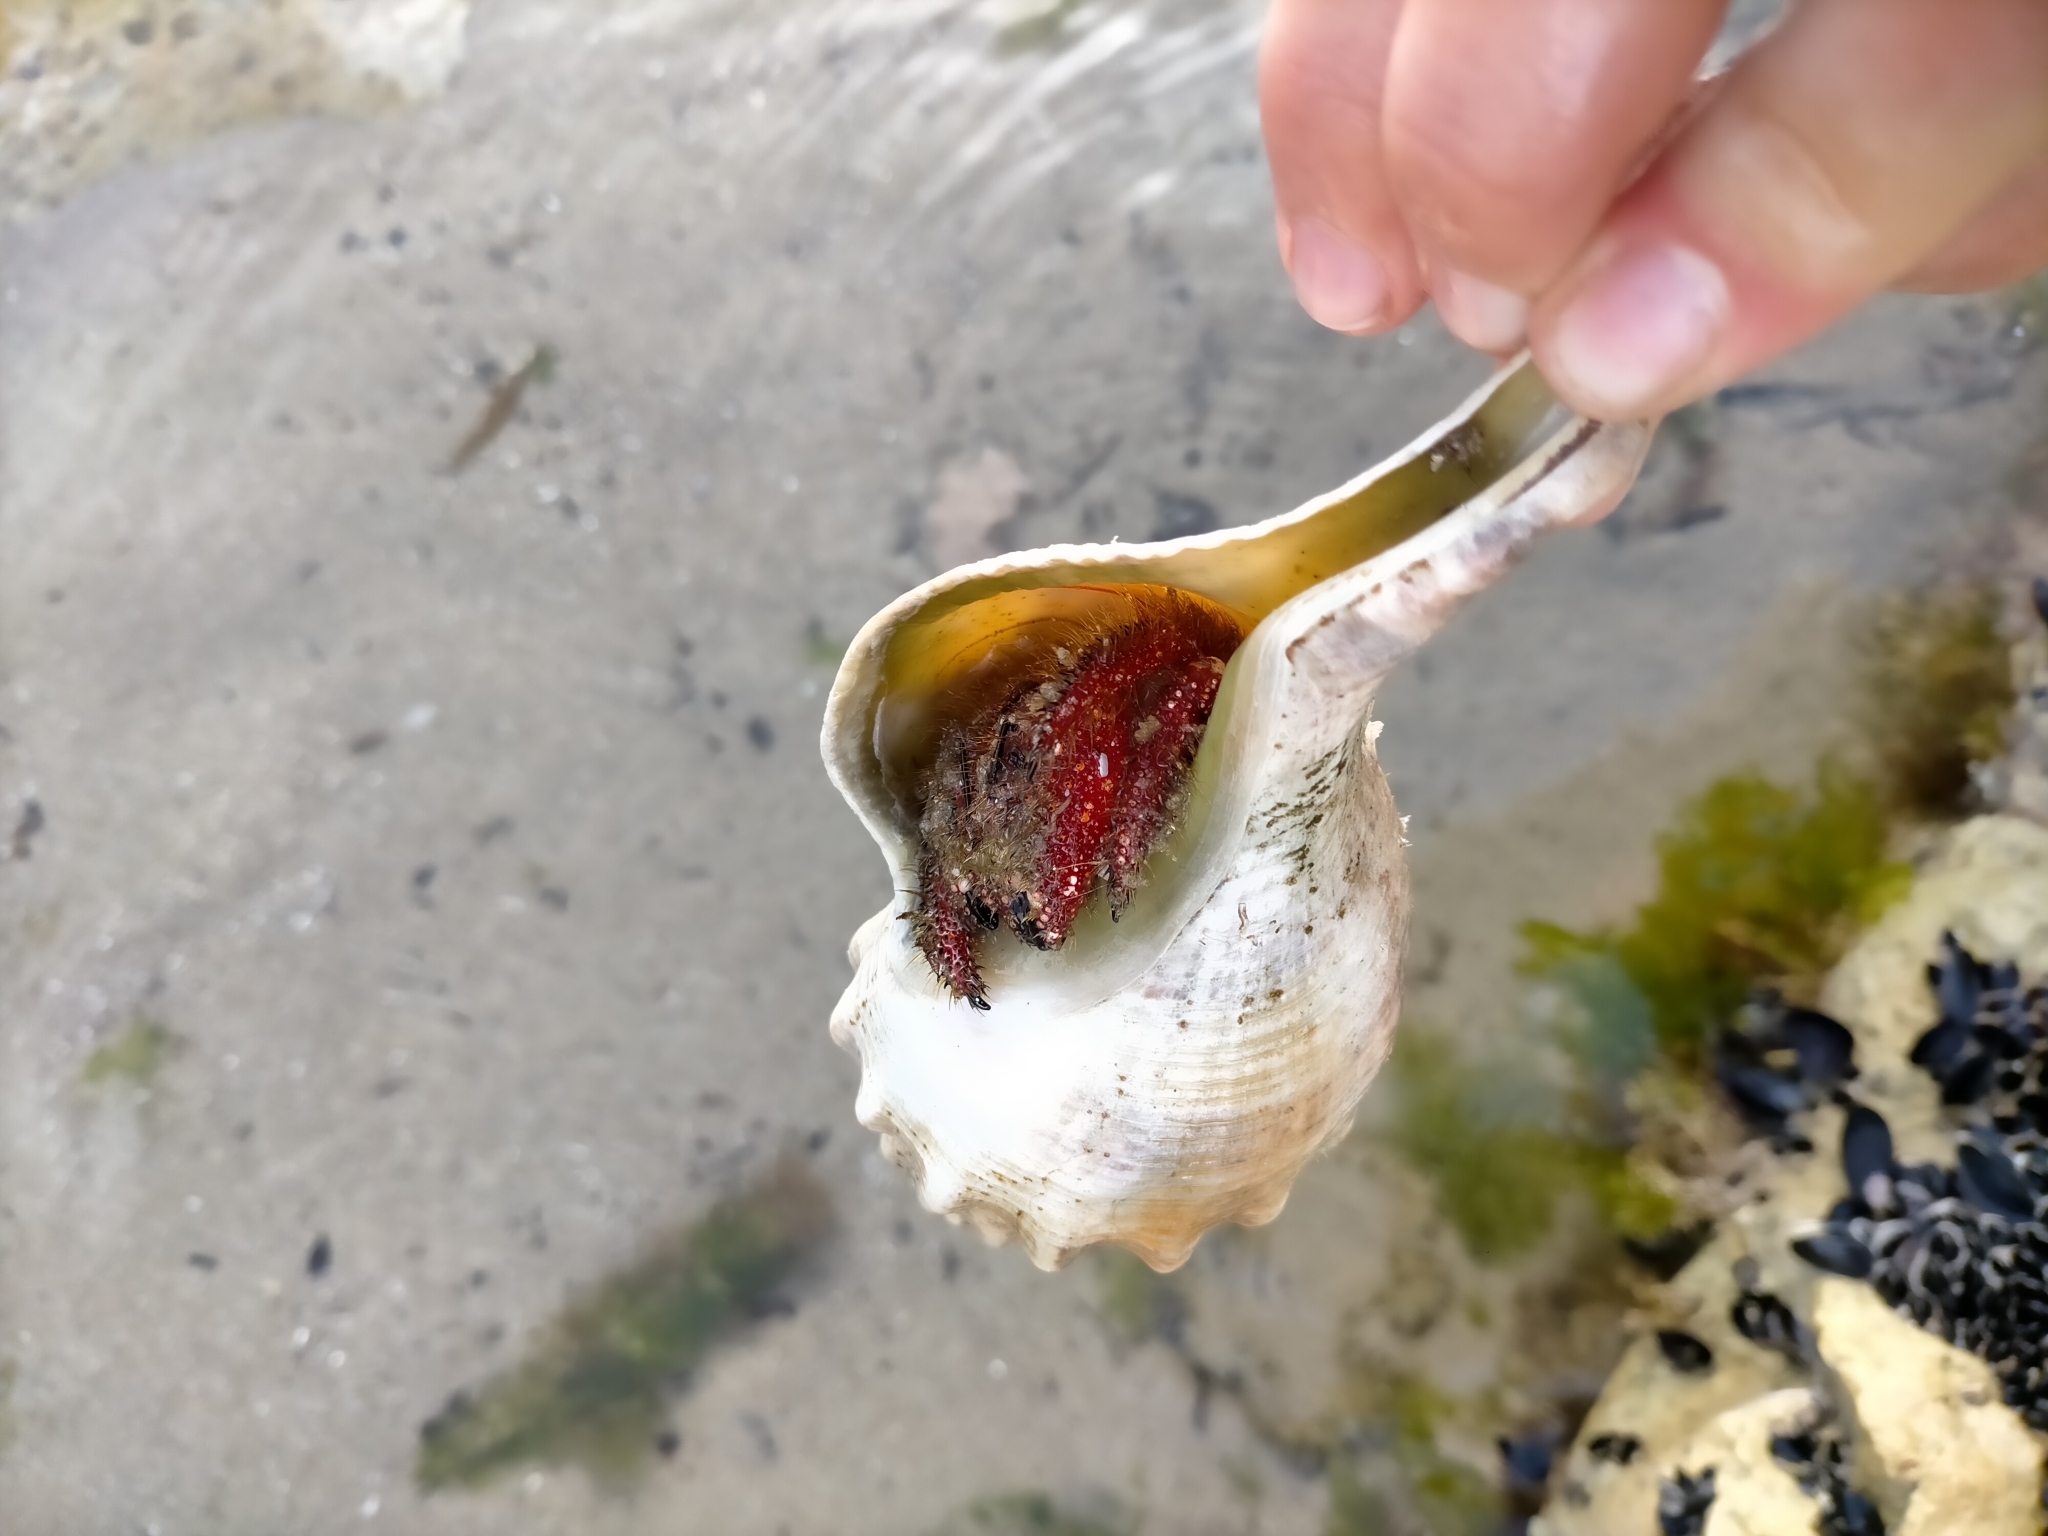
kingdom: Animalia
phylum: Mollusca
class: Gastropoda
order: Neogastropoda
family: Austrosiphonidae
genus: Penion
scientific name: Penion maximus
